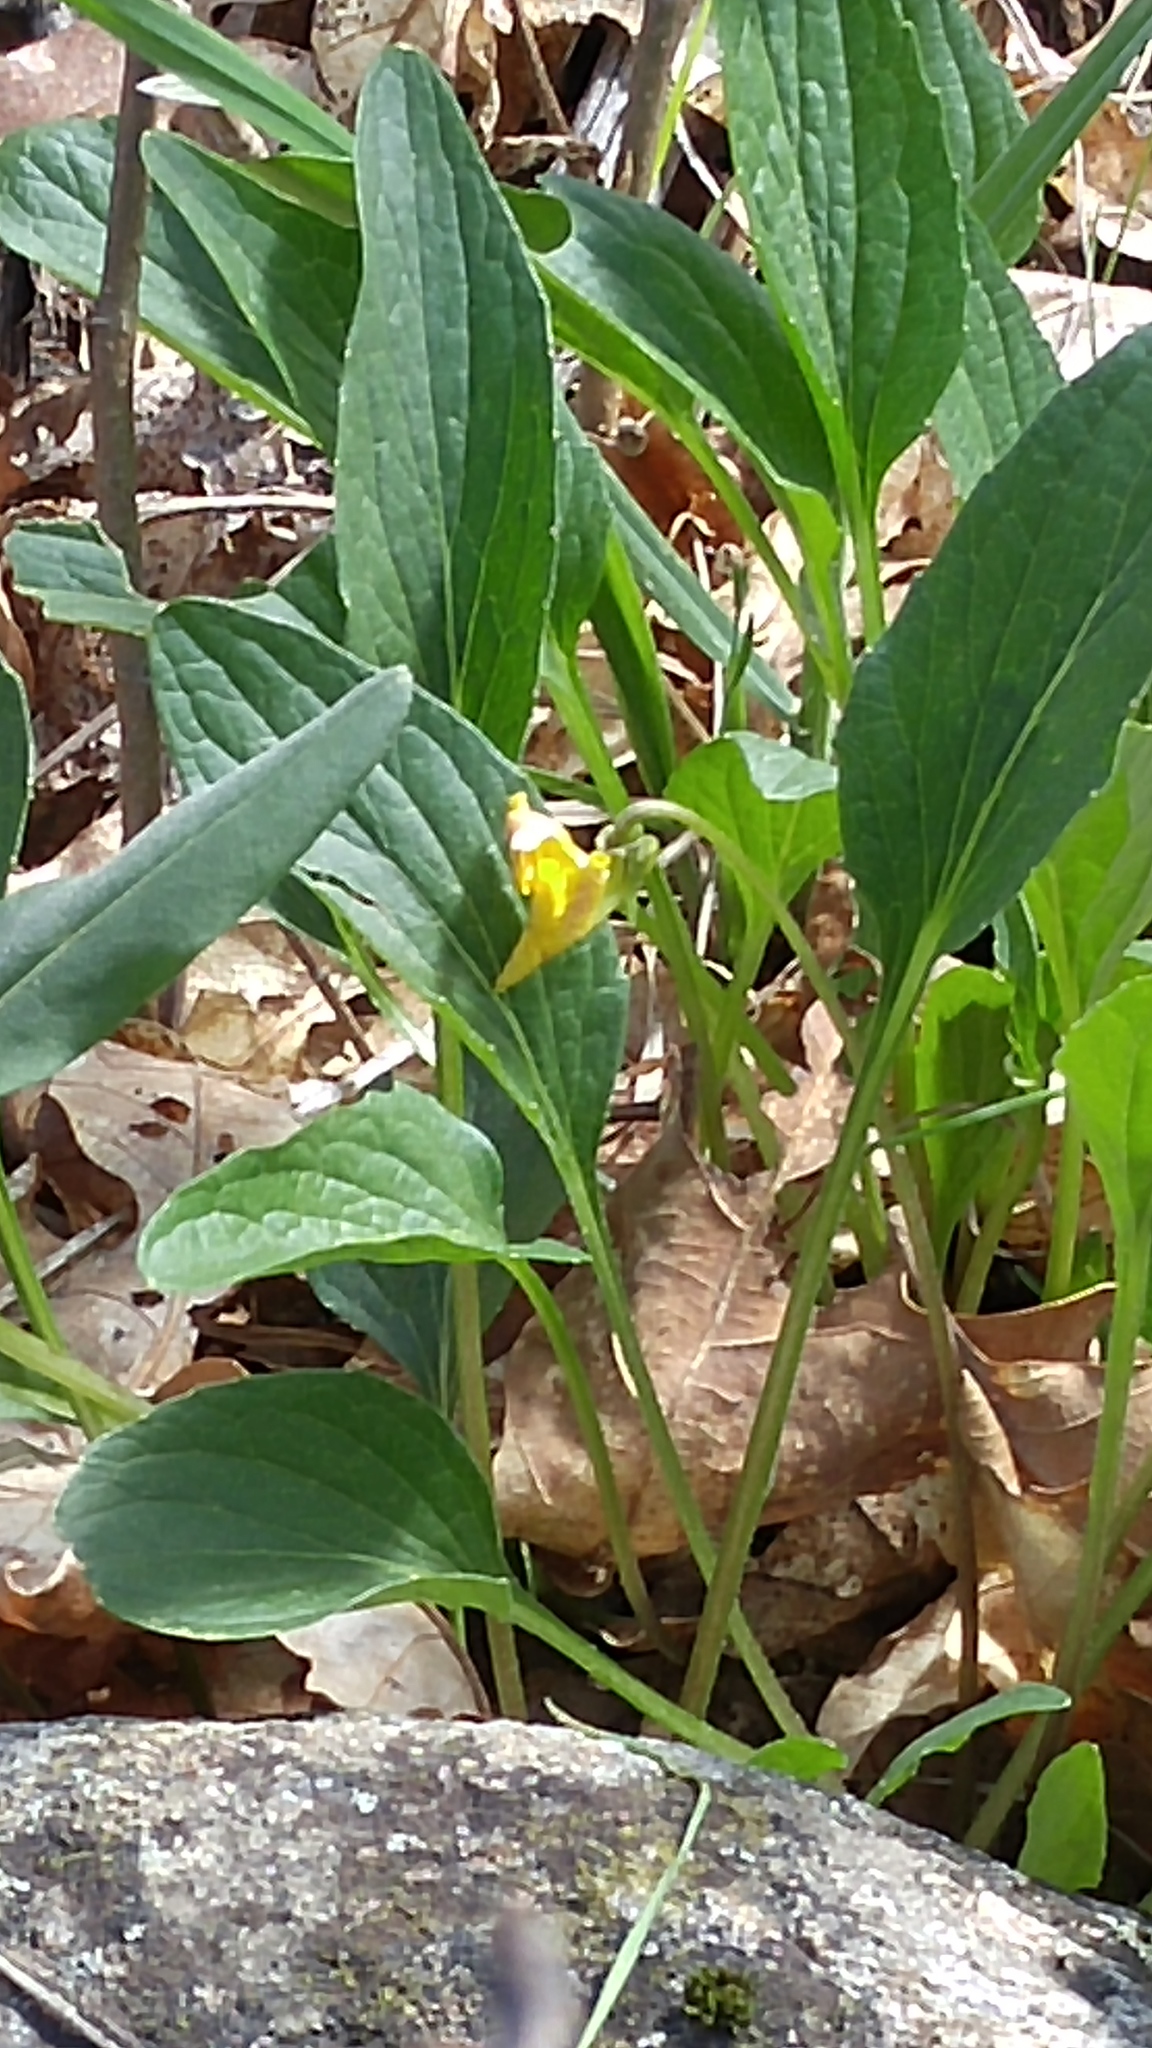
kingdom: Plantae
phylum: Tracheophyta
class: Magnoliopsida
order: Malpighiales
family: Violaceae
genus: Viola
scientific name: Viola nuttallii
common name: Yellow prairie violet
